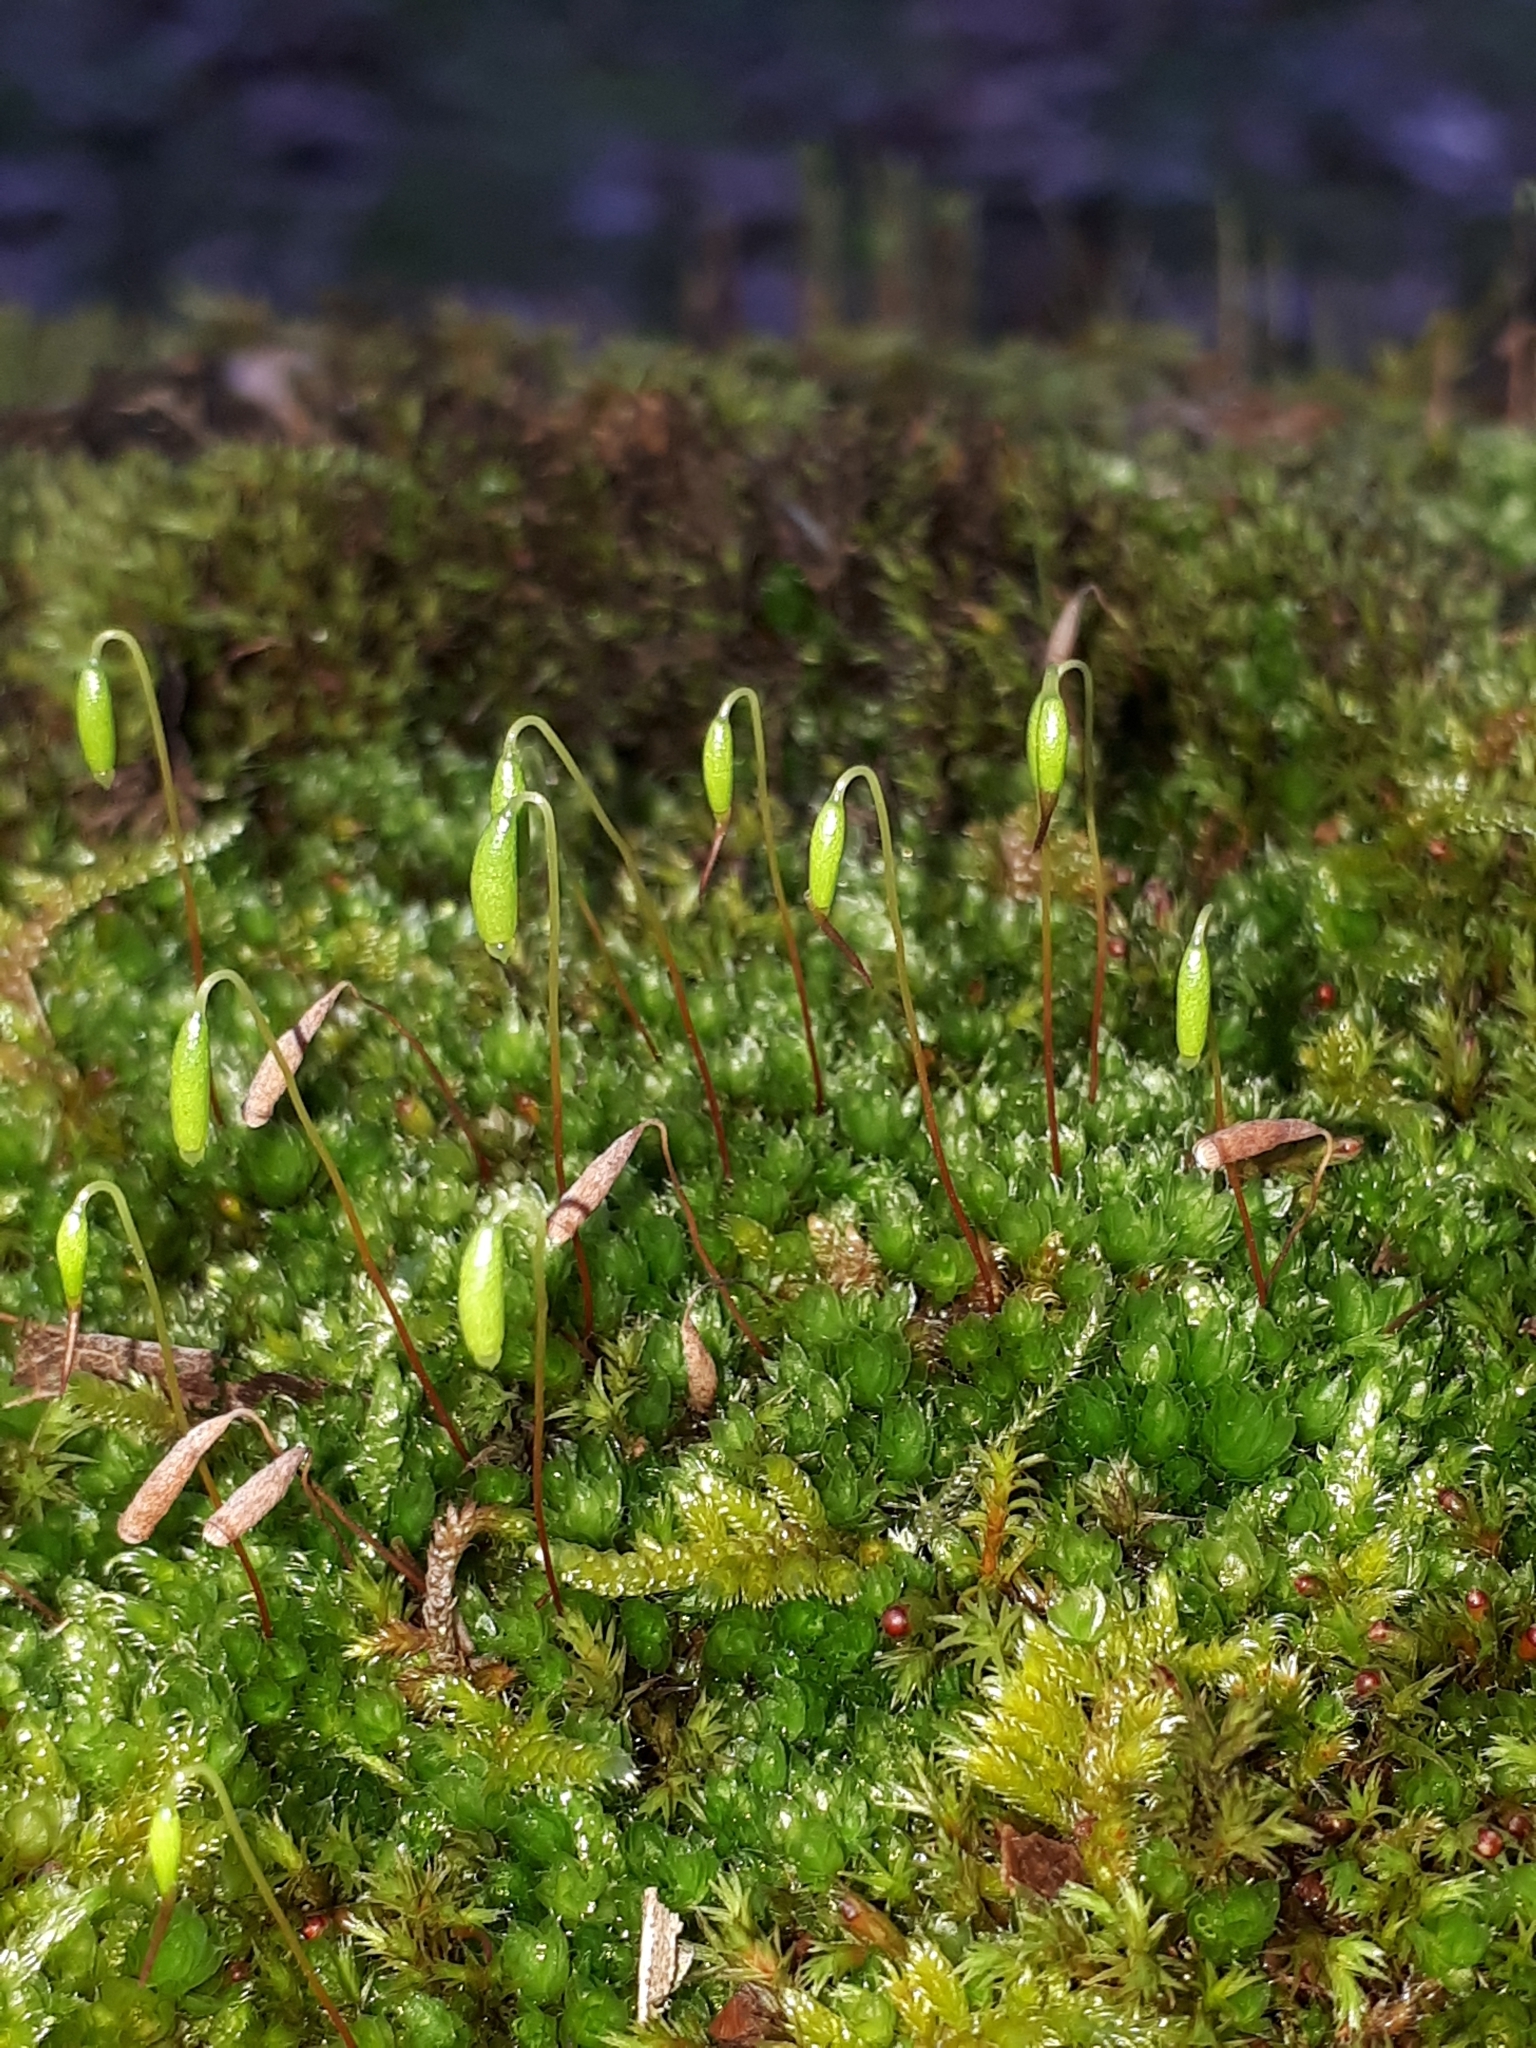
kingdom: Plantae
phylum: Bryophyta
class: Bryopsida
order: Bryales
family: Bryaceae
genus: Rosulabryum
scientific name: Rosulabryum capillare
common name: Capillary thread-moss
